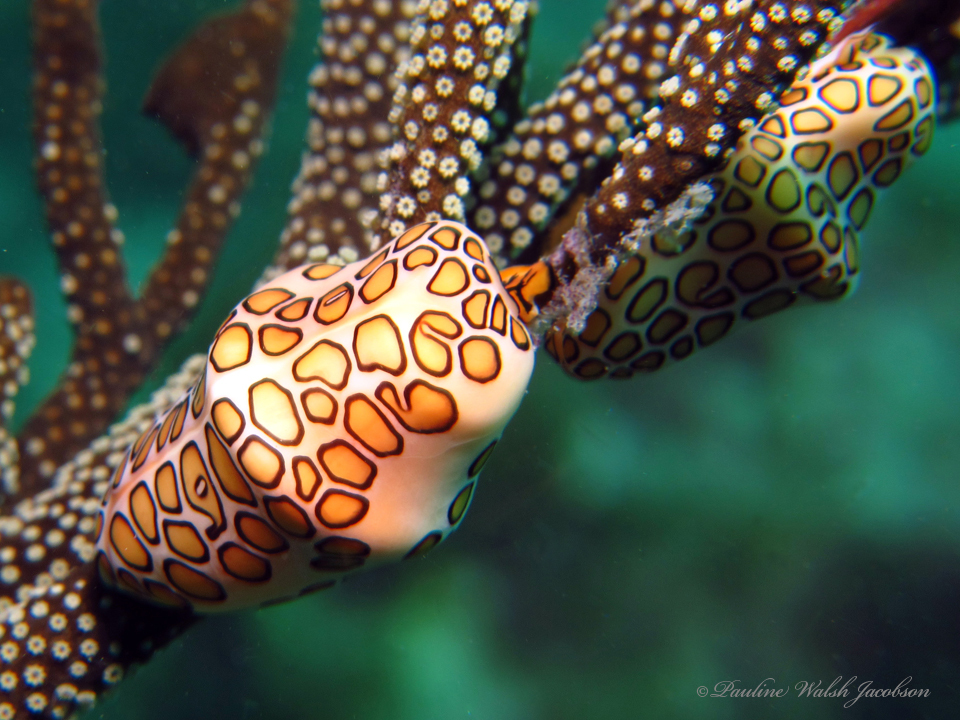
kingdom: Animalia
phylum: Mollusca
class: Gastropoda
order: Littorinimorpha
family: Ovulidae
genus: Cyphoma
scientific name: Cyphoma gibbosum
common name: Flamingo tongue
